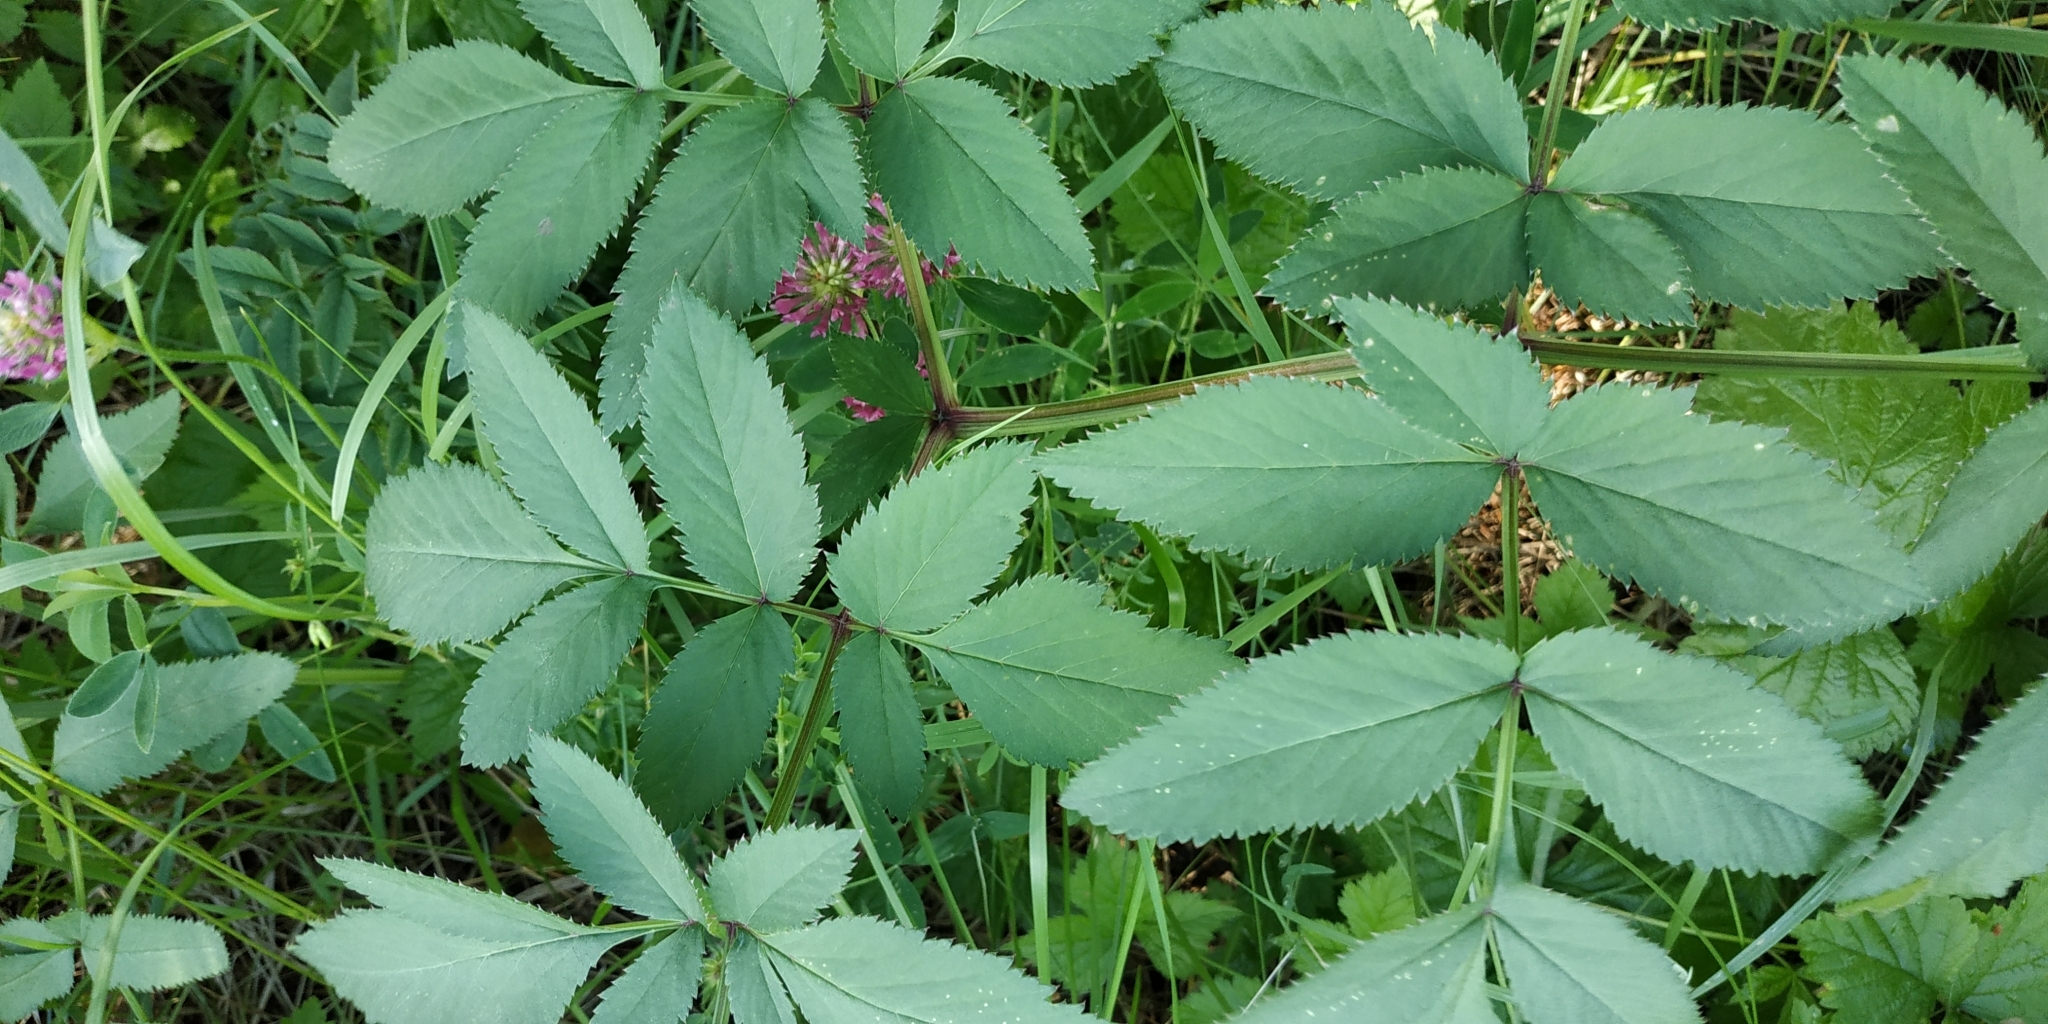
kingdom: Plantae
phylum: Tracheophyta
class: Magnoliopsida
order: Apiales
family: Apiaceae
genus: Angelica
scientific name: Angelica sylvestris
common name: Wild angelica
